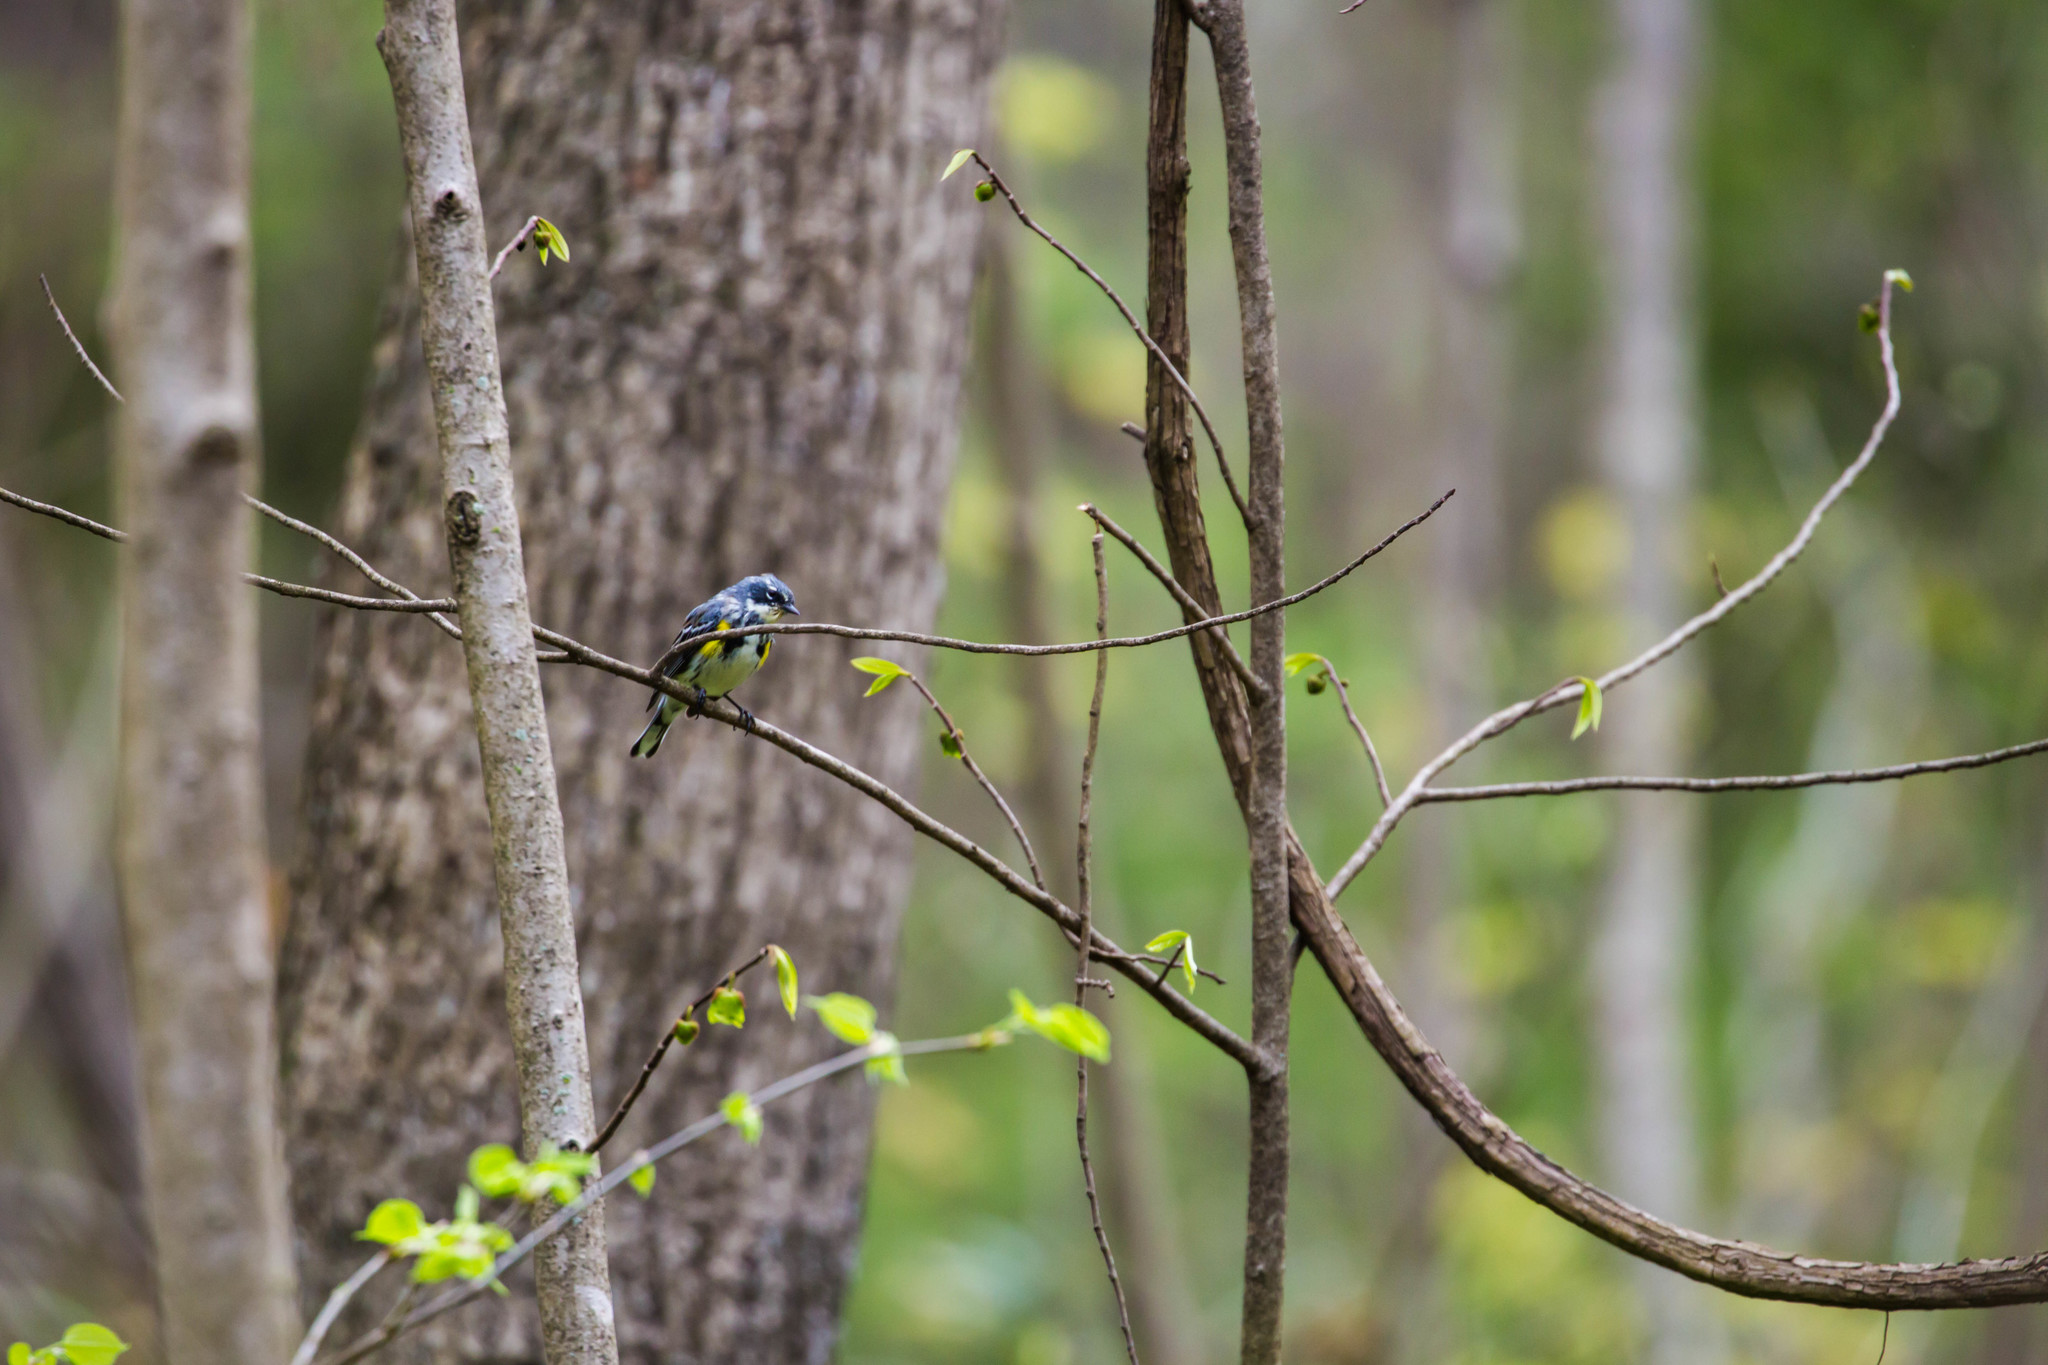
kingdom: Animalia
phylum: Chordata
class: Aves
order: Passeriformes
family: Parulidae
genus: Setophaga
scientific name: Setophaga coronata
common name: Myrtle warbler
